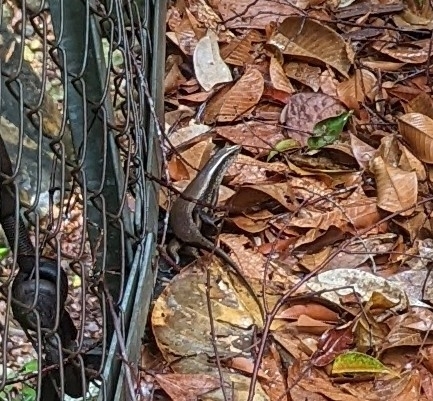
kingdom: Animalia
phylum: Chordata
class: Squamata
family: Scincidae
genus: Eutropis
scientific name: Eutropis multifasciata
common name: Common mabuya
